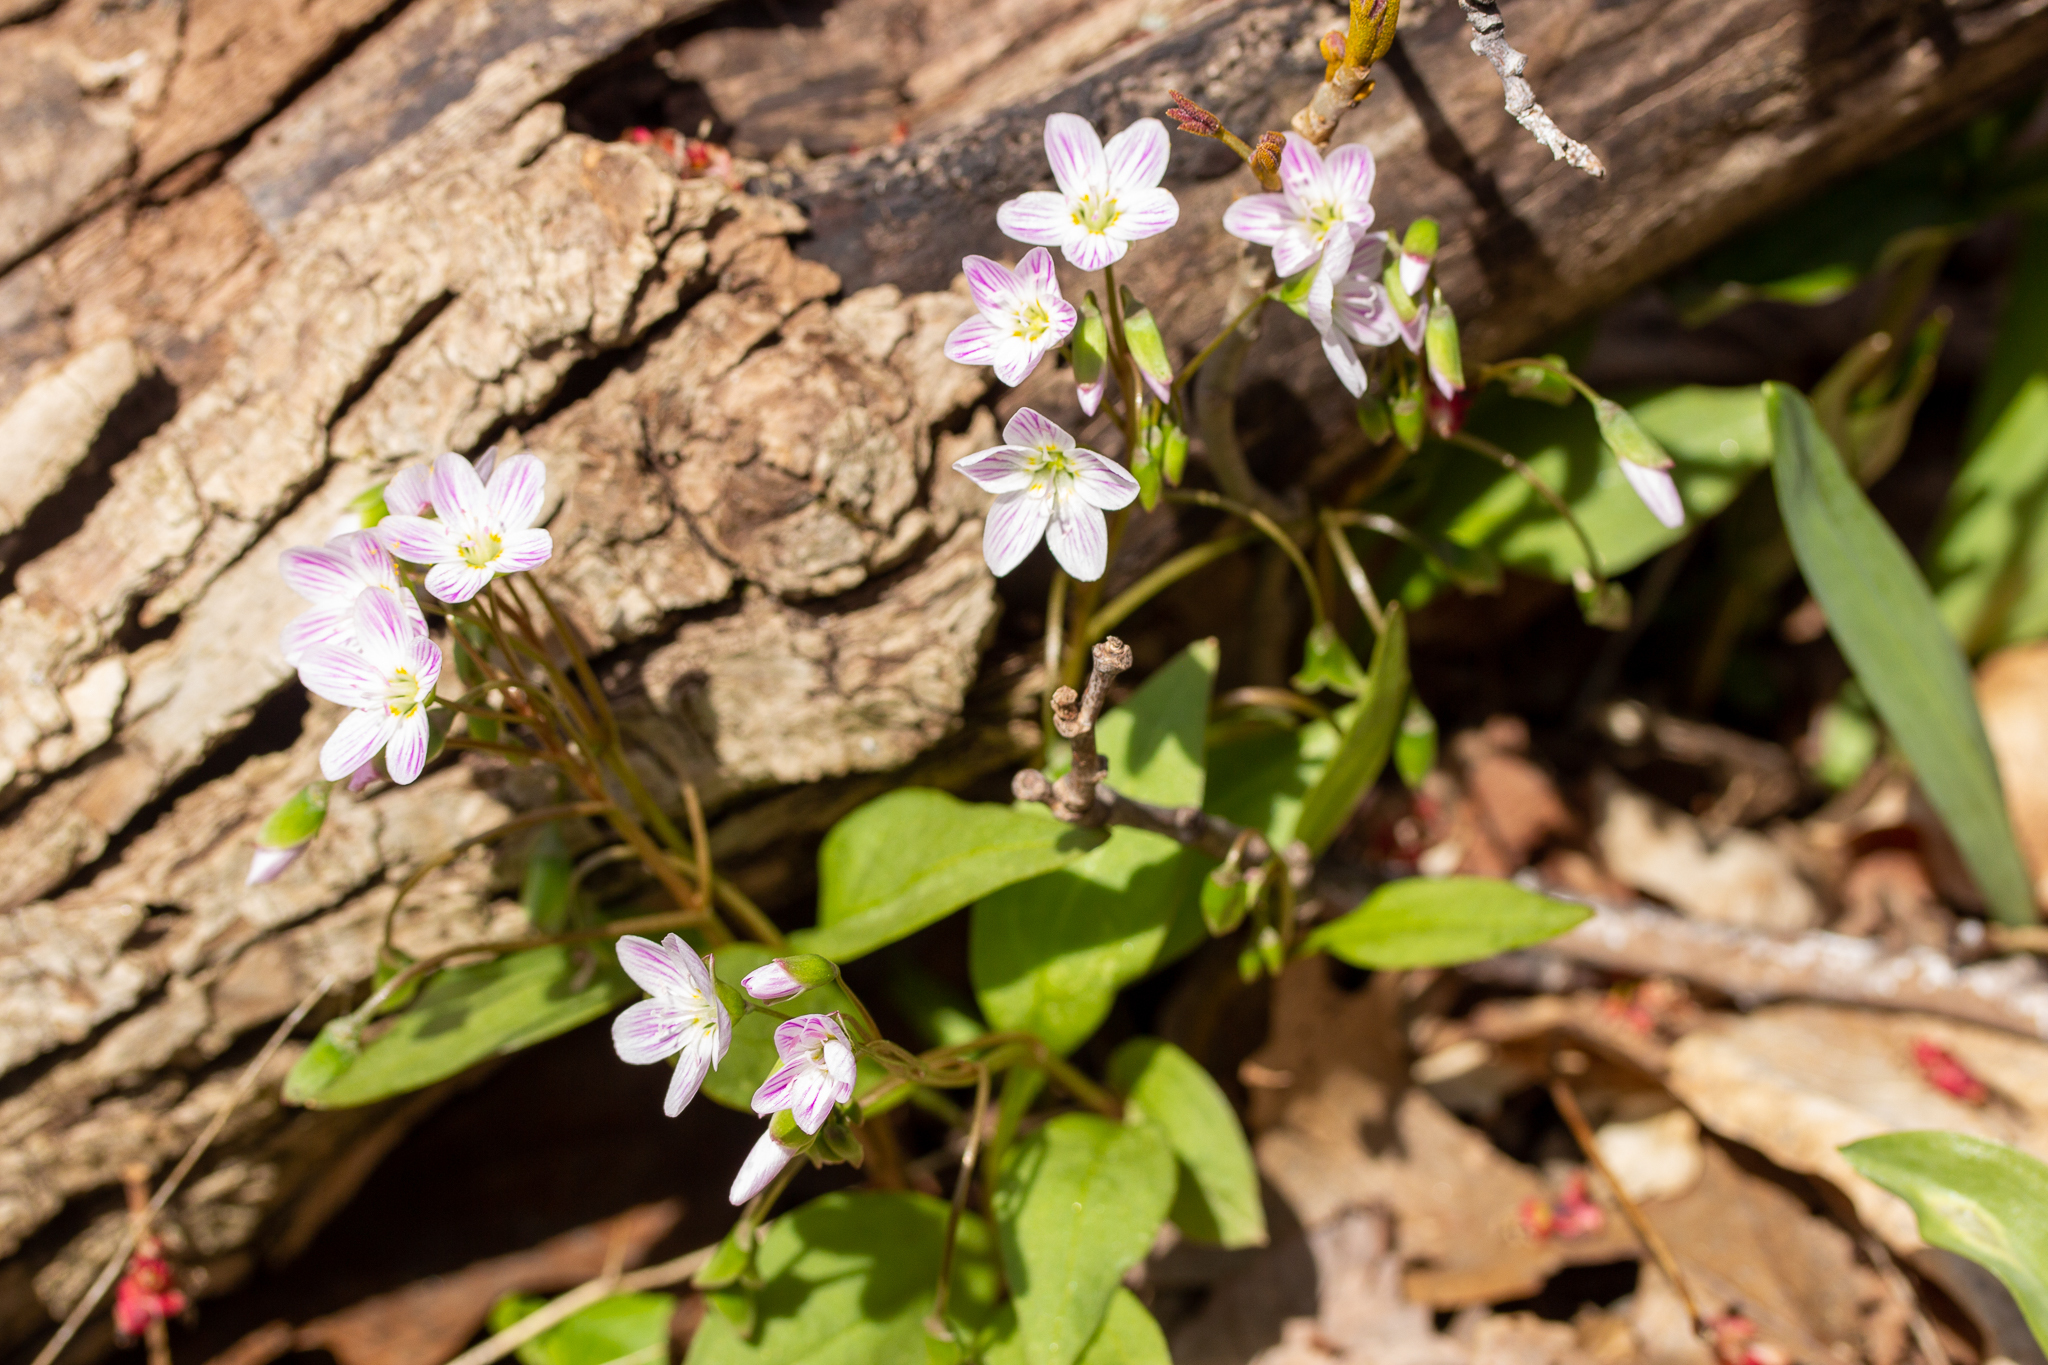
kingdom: Plantae
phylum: Tracheophyta
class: Magnoliopsida
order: Caryophyllales
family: Montiaceae
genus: Claytonia
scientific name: Claytonia caroliniana
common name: Carolina spring beauty
